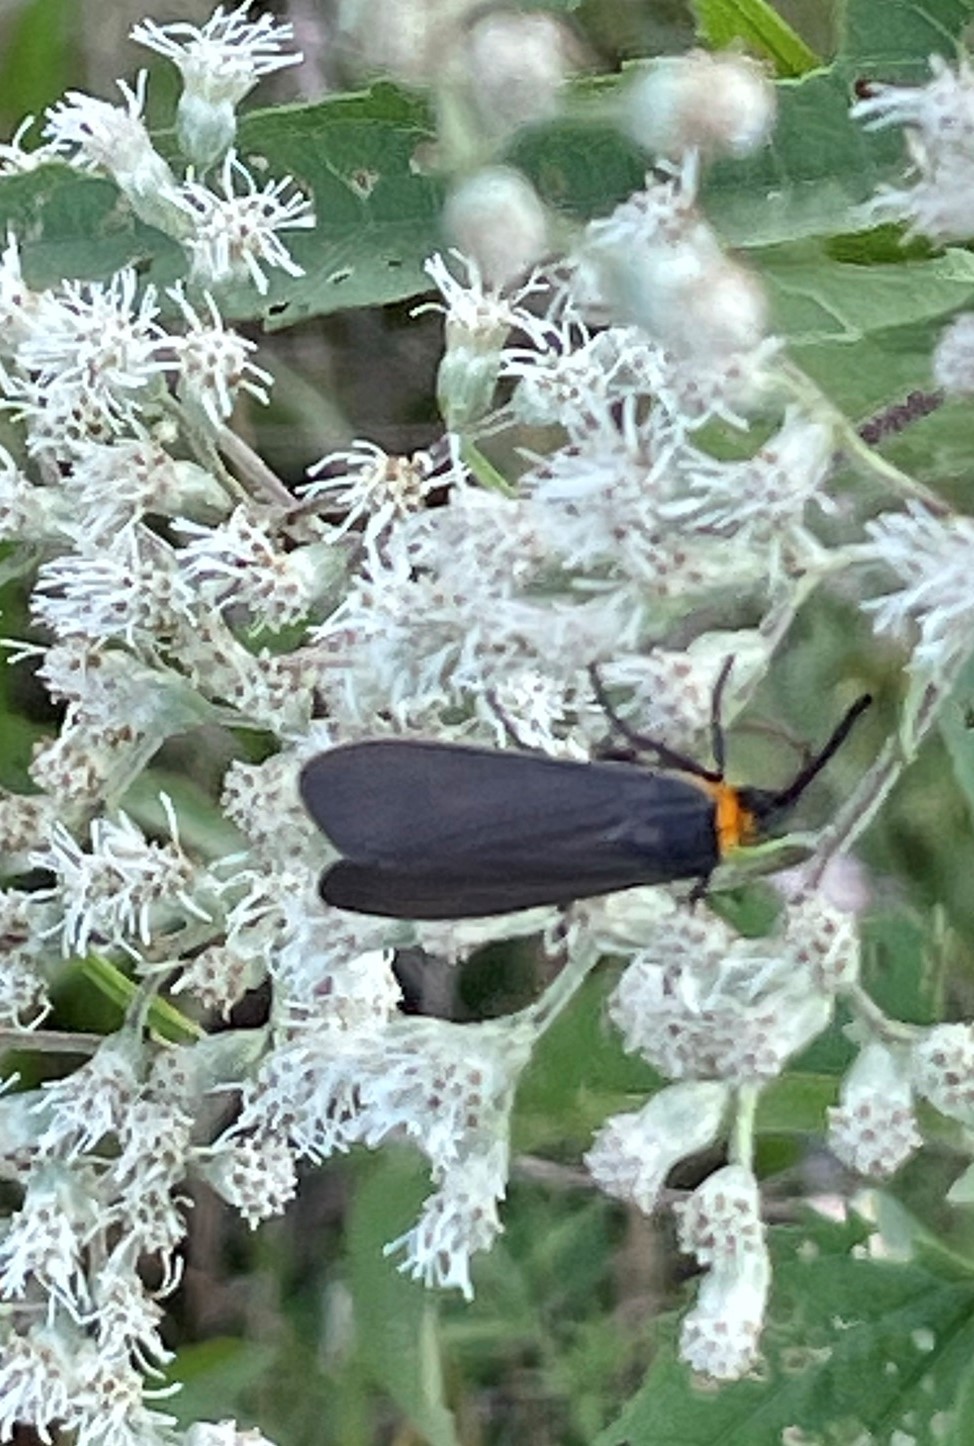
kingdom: Animalia
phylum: Arthropoda
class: Insecta
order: Lepidoptera
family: Erebidae
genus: Cisseps
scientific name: Cisseps fulvicollis
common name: Yellow-collared scape moth
